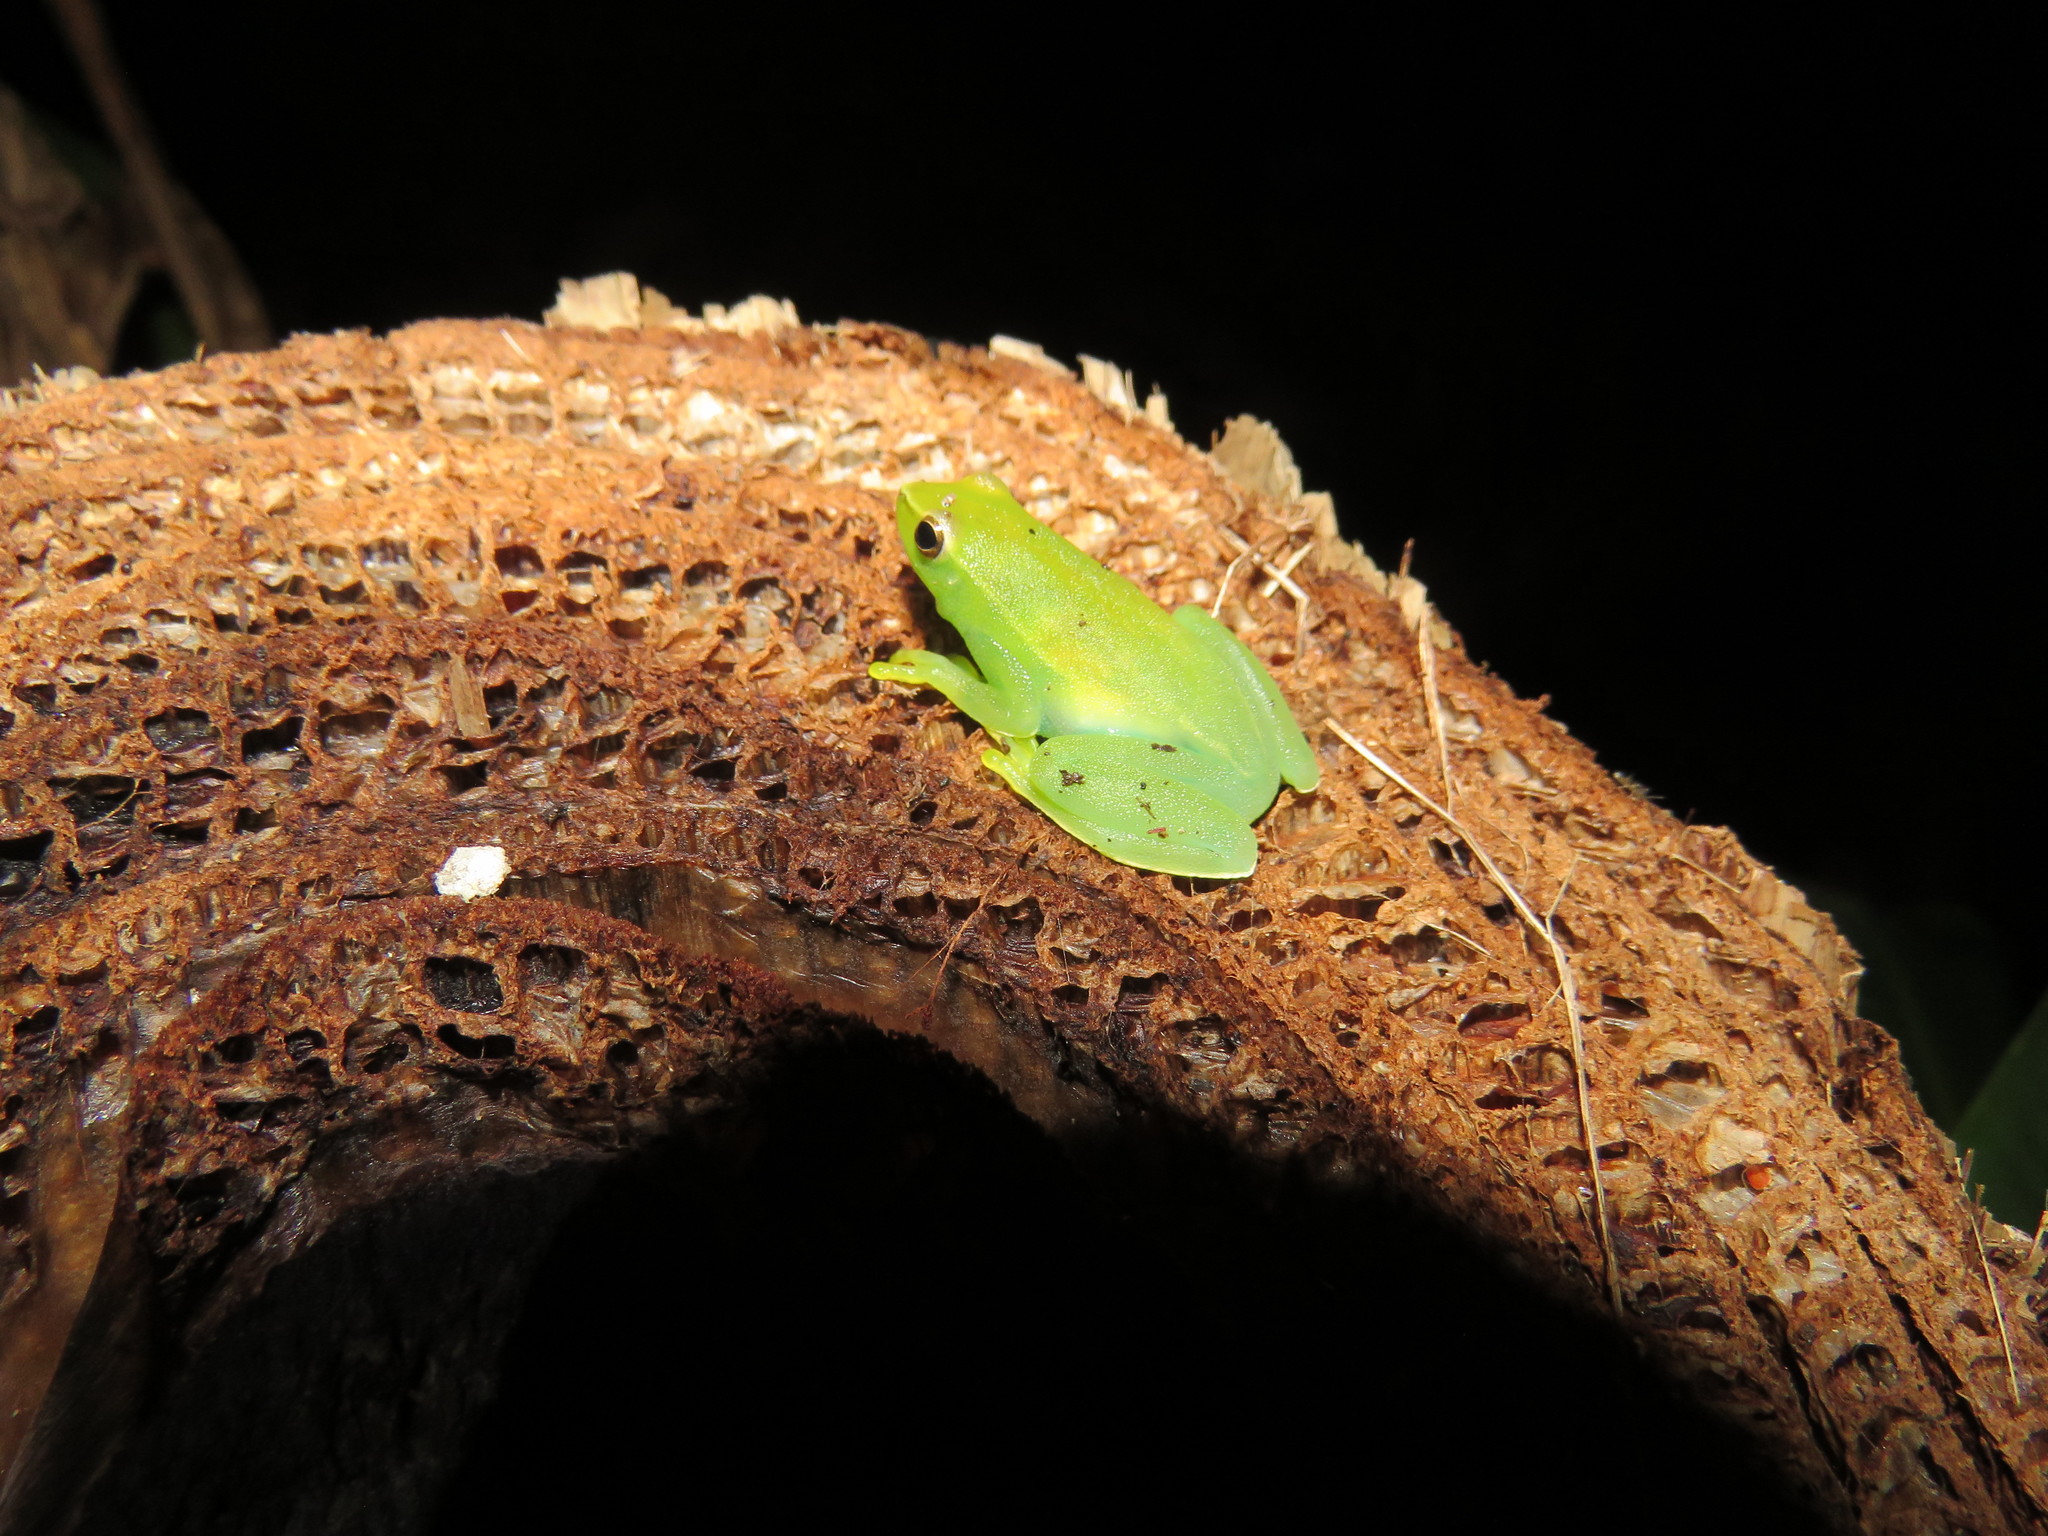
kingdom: Animalia
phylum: Chordata
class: Amphibia
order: Anura
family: Hylidae
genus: Sphaenorhynchus
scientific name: Sphaenorhynchus lacteus
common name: Orinoco lime treefrog
